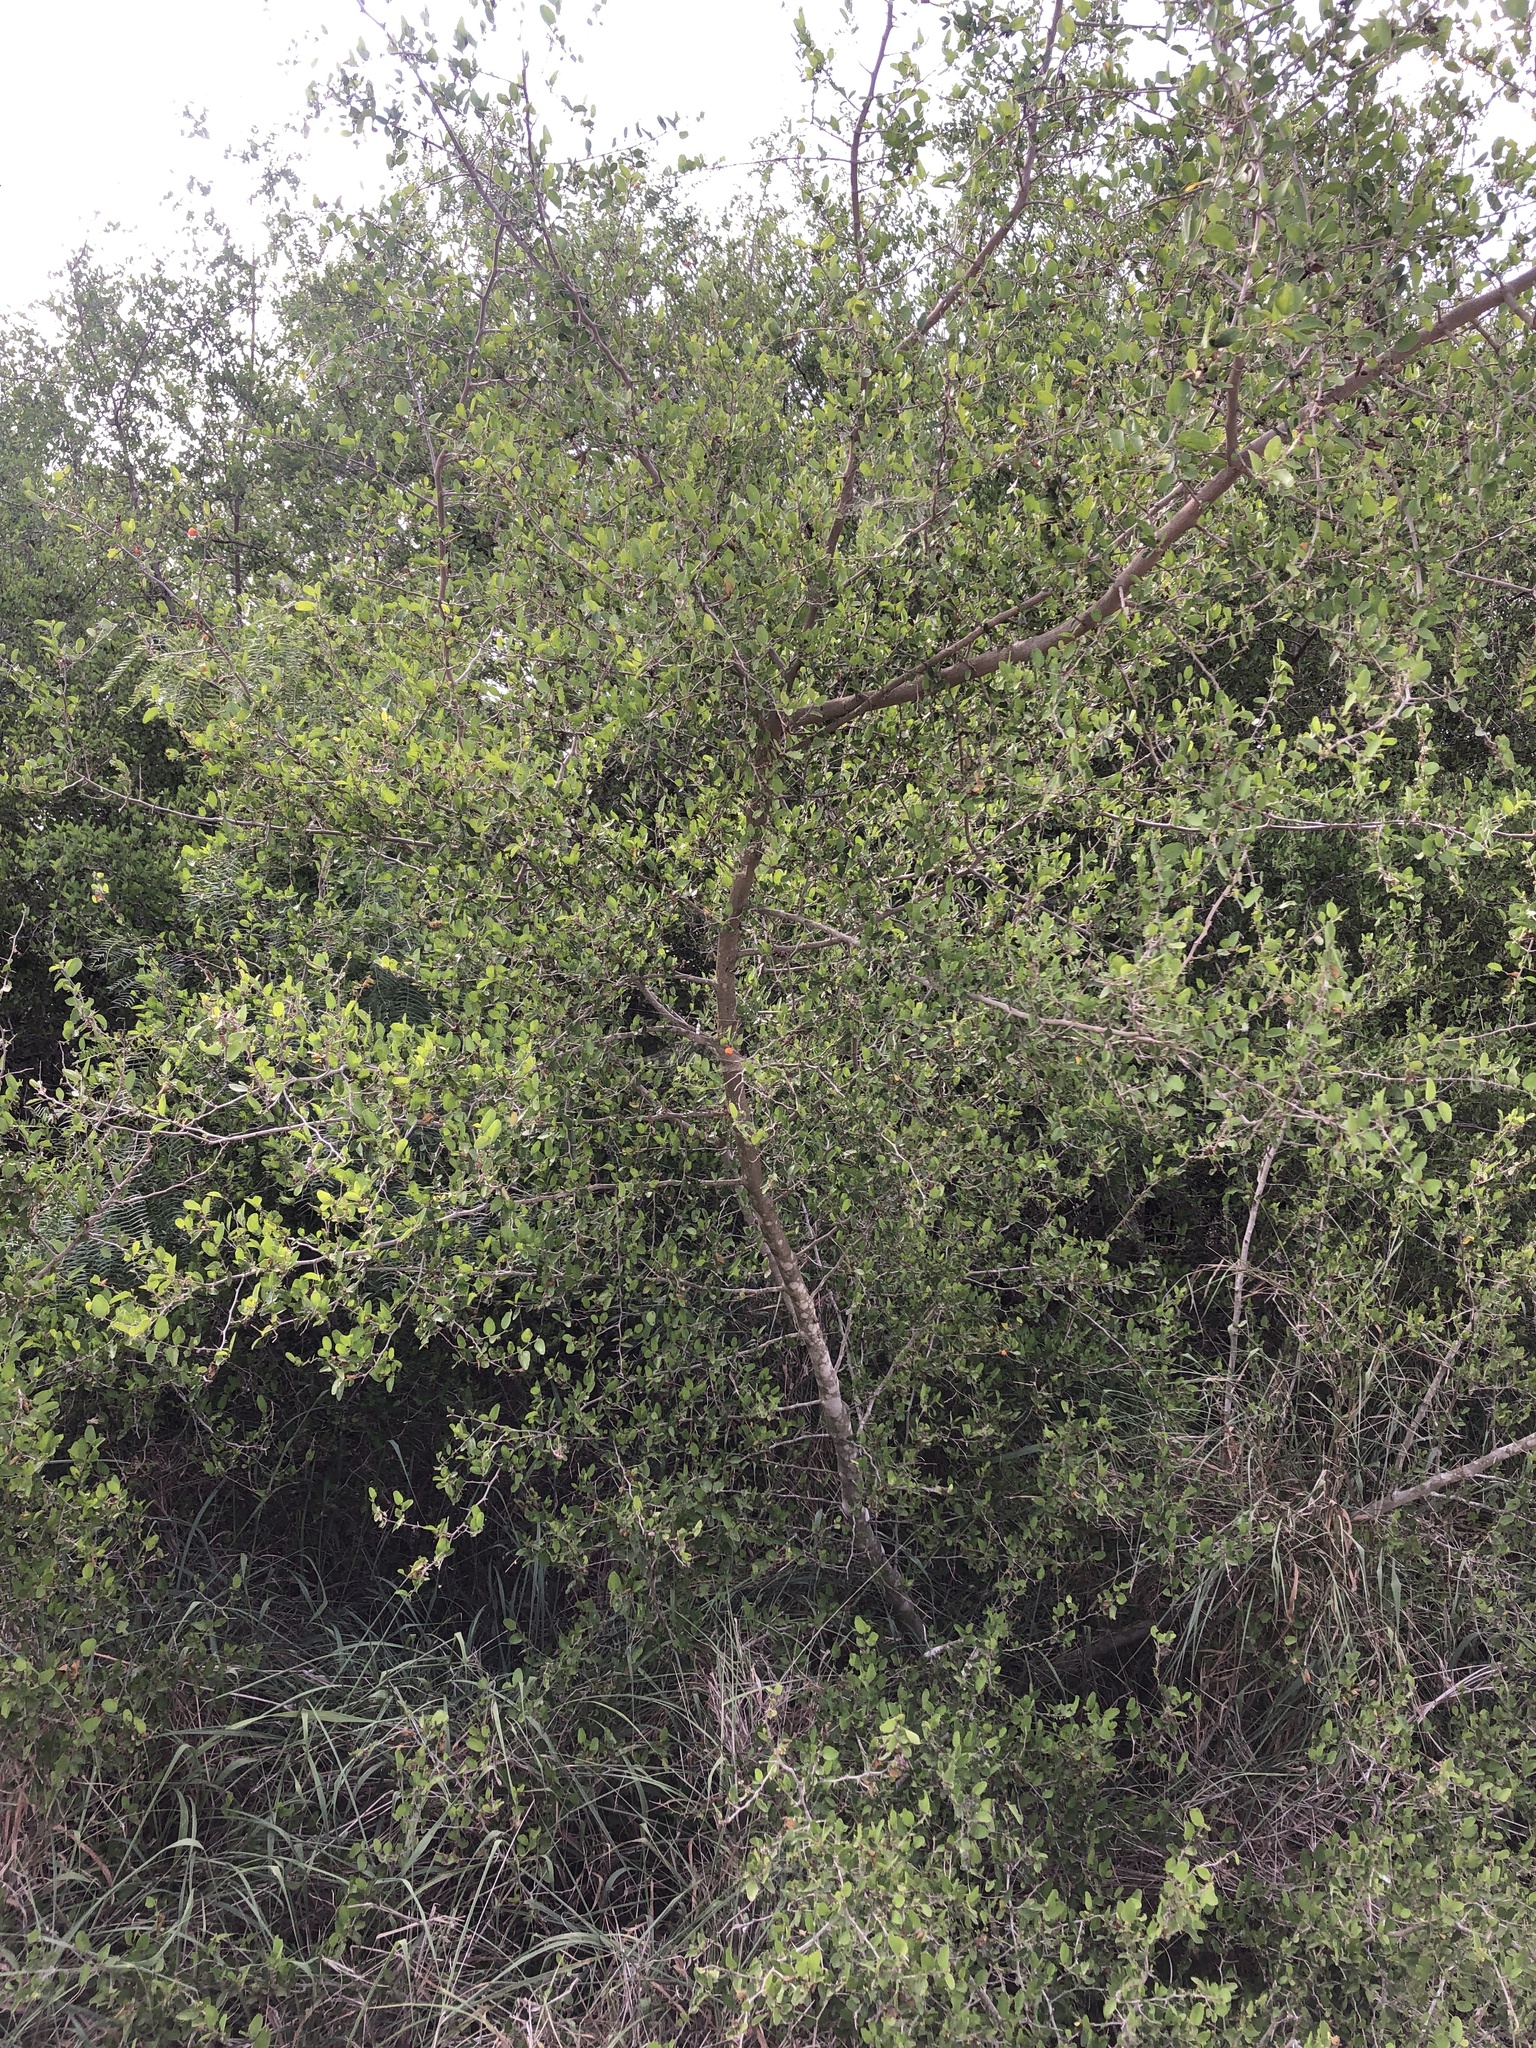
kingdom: Plantae
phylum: Tracheophyta
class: Magnoliopsida
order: Rosales
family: Cannabaceae
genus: Celtis
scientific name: Celtis pallida
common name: Desert hackberry
